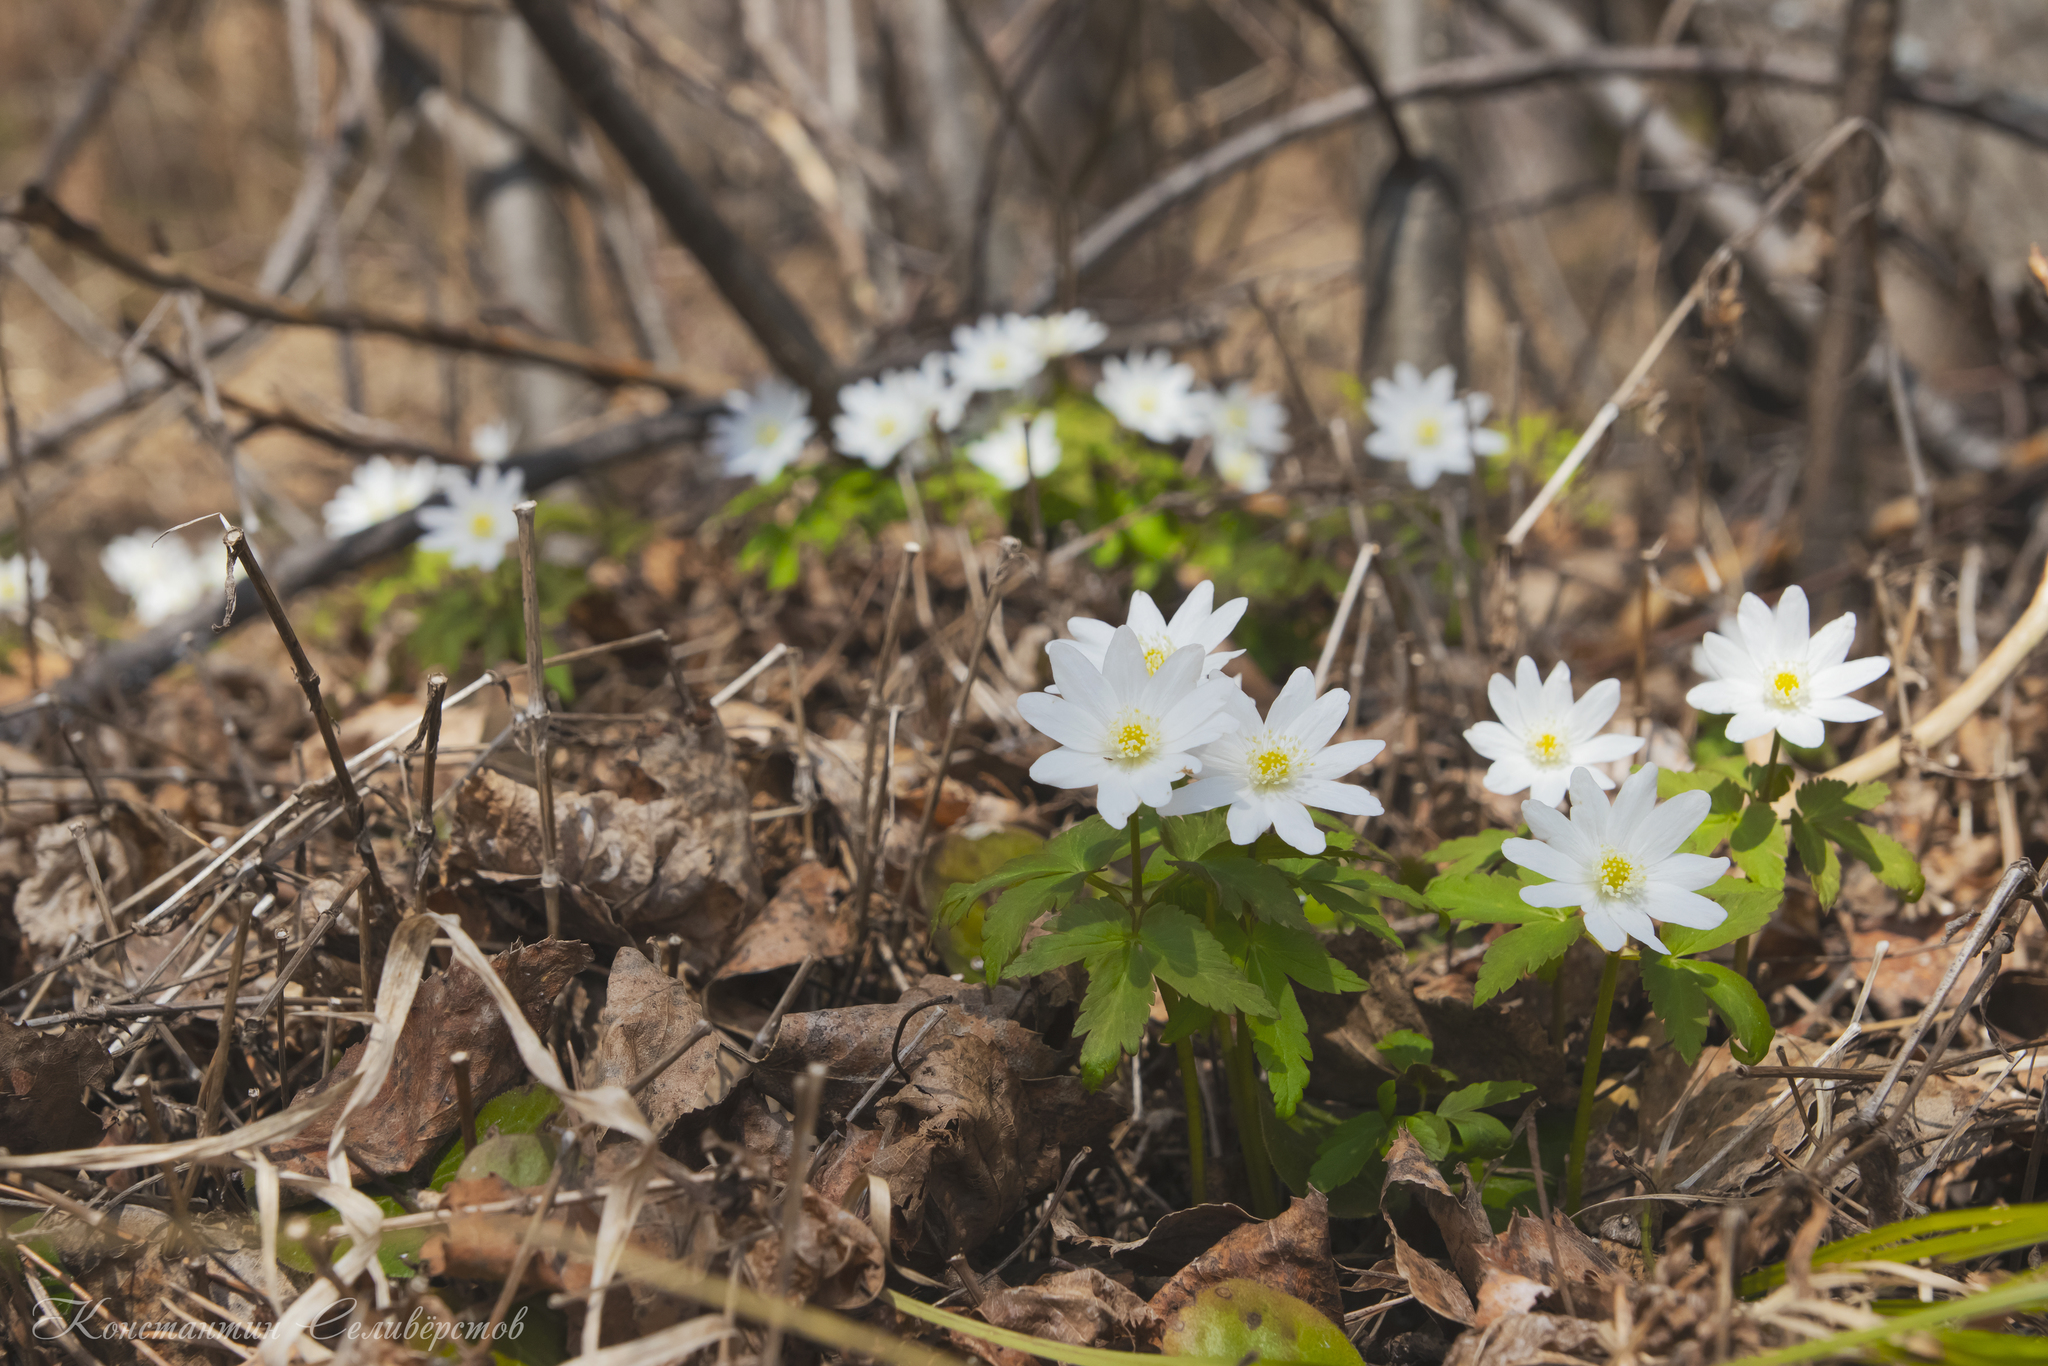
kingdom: Plantae
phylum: Tracheophyta
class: Magnoliopsida
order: Ranunculales
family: Ranunculaceae
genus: Anemone
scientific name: Anemone altaica
